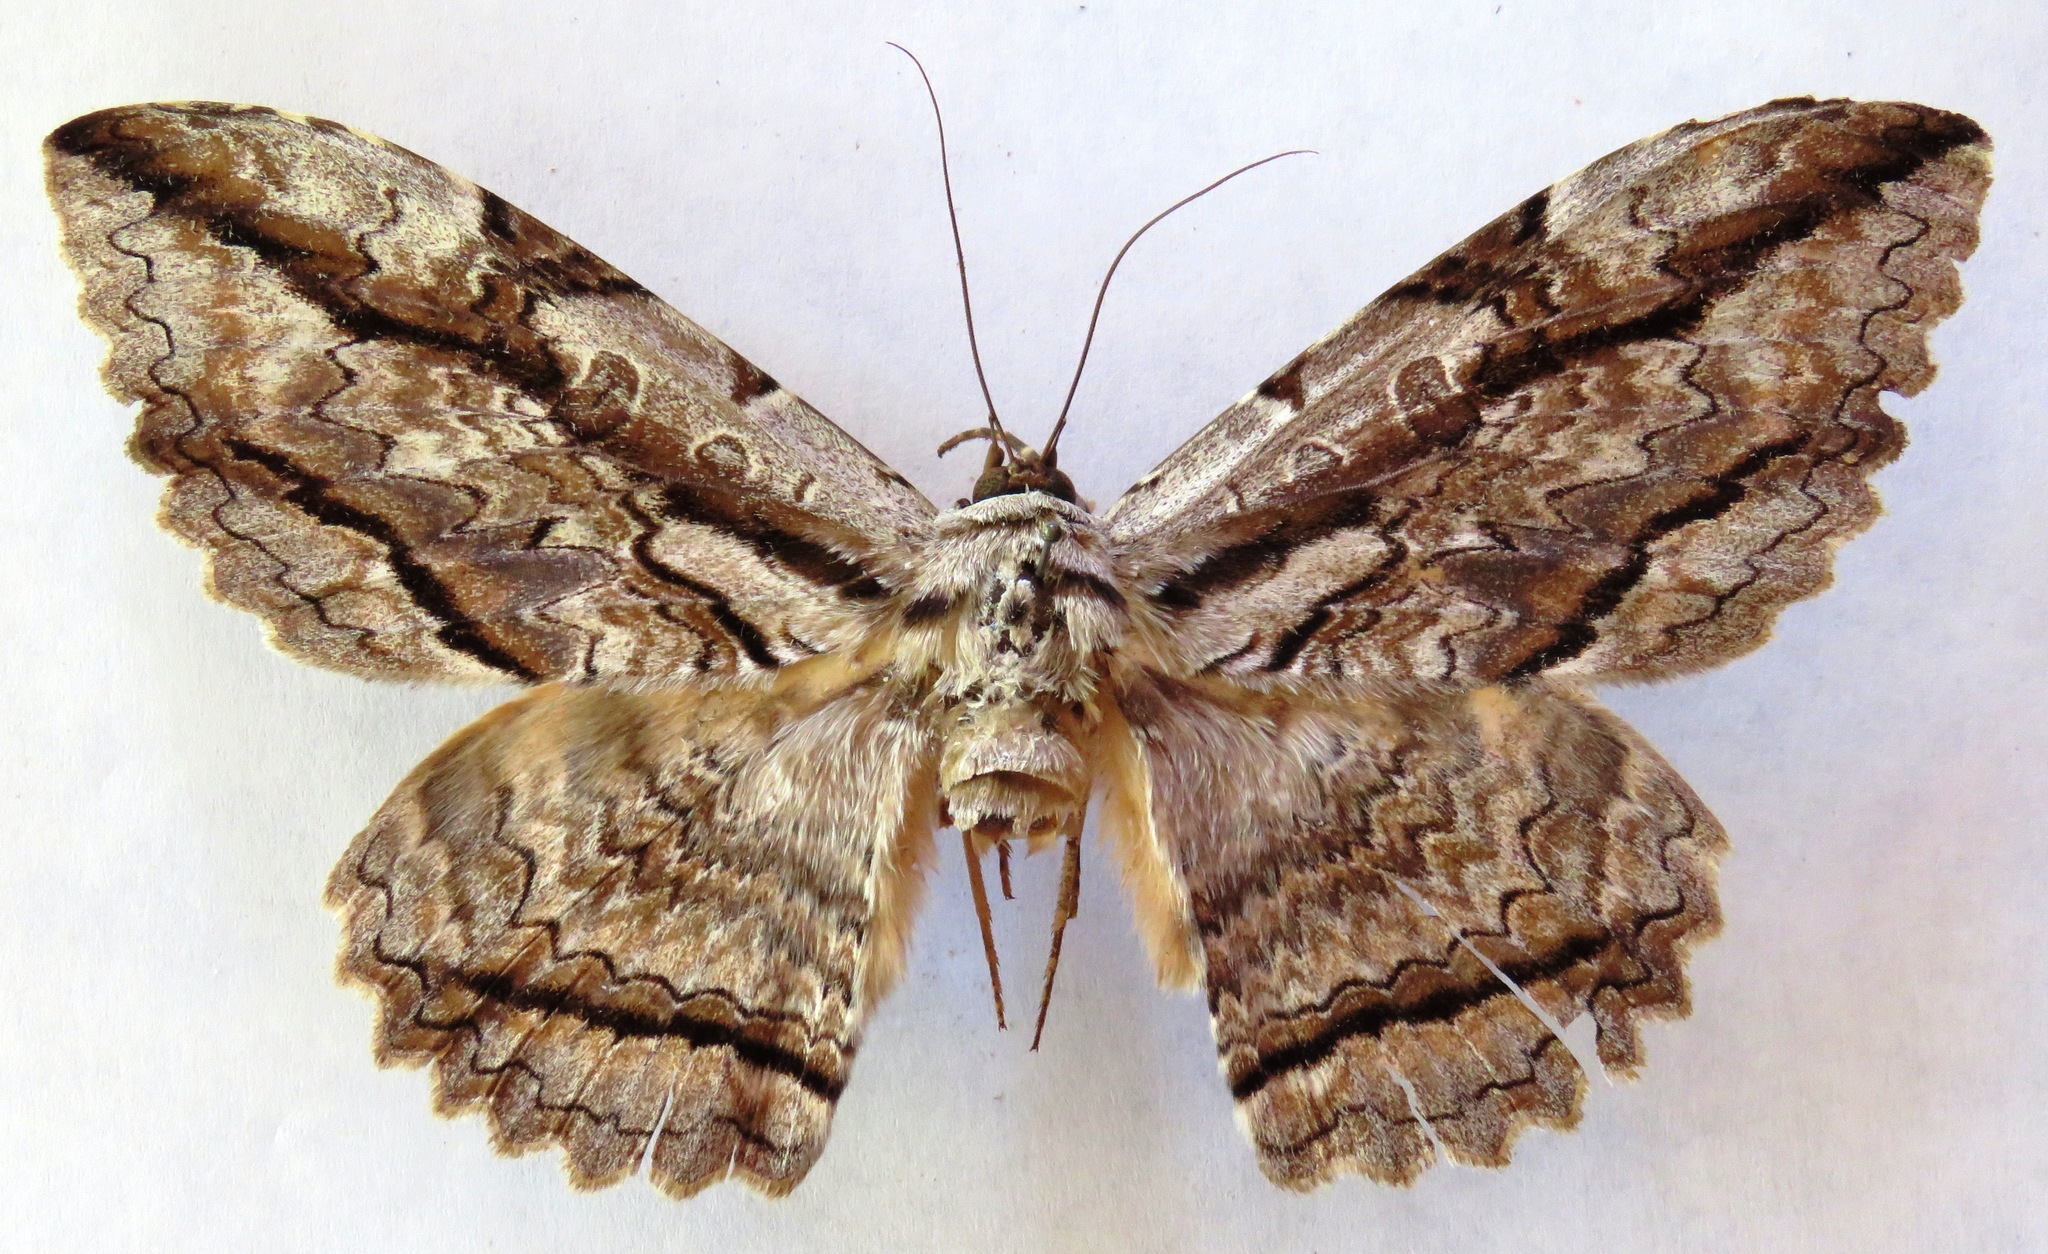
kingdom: Animalia
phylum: Arthropoda
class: Insecta
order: Lepidoptera
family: Erebidae
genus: Thysania
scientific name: Thysania zenobia
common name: Owl moth
